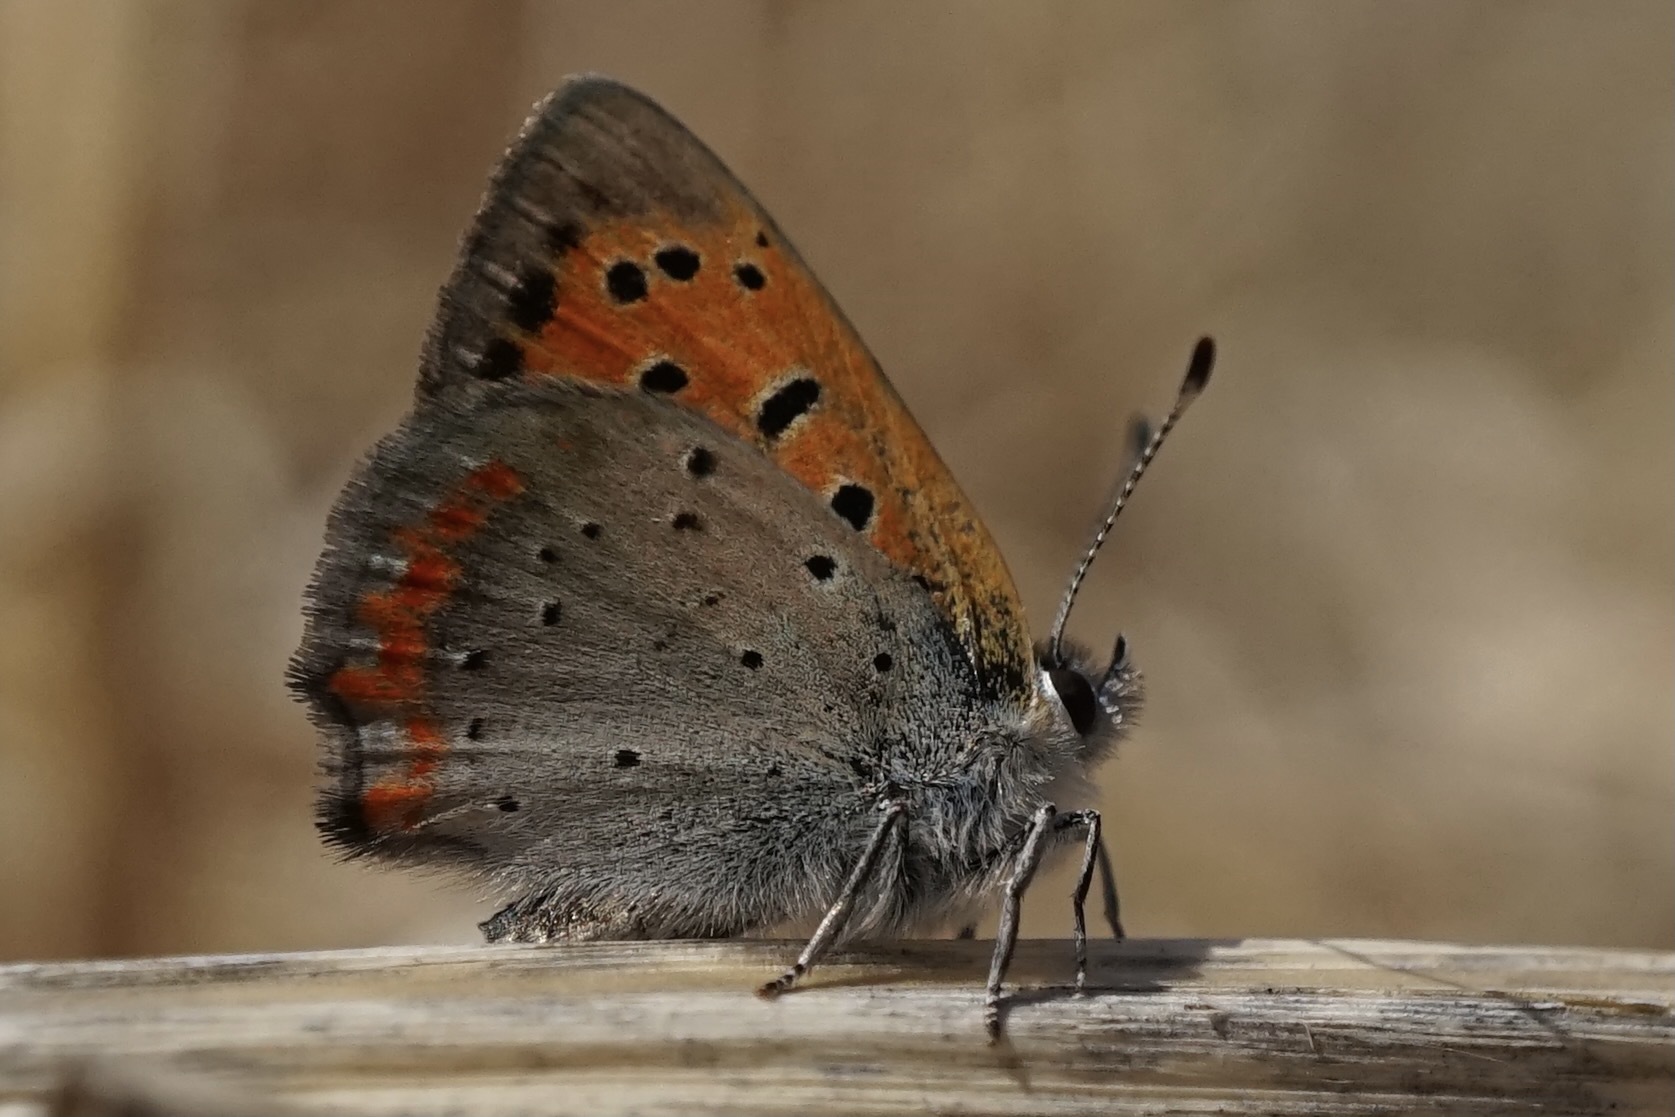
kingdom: Animalia
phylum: Arthropoda
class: Insecta
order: Lepidoptera
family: Lycaenidae
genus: Lycaena
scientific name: Lycaena phlaeas
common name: Small copper
